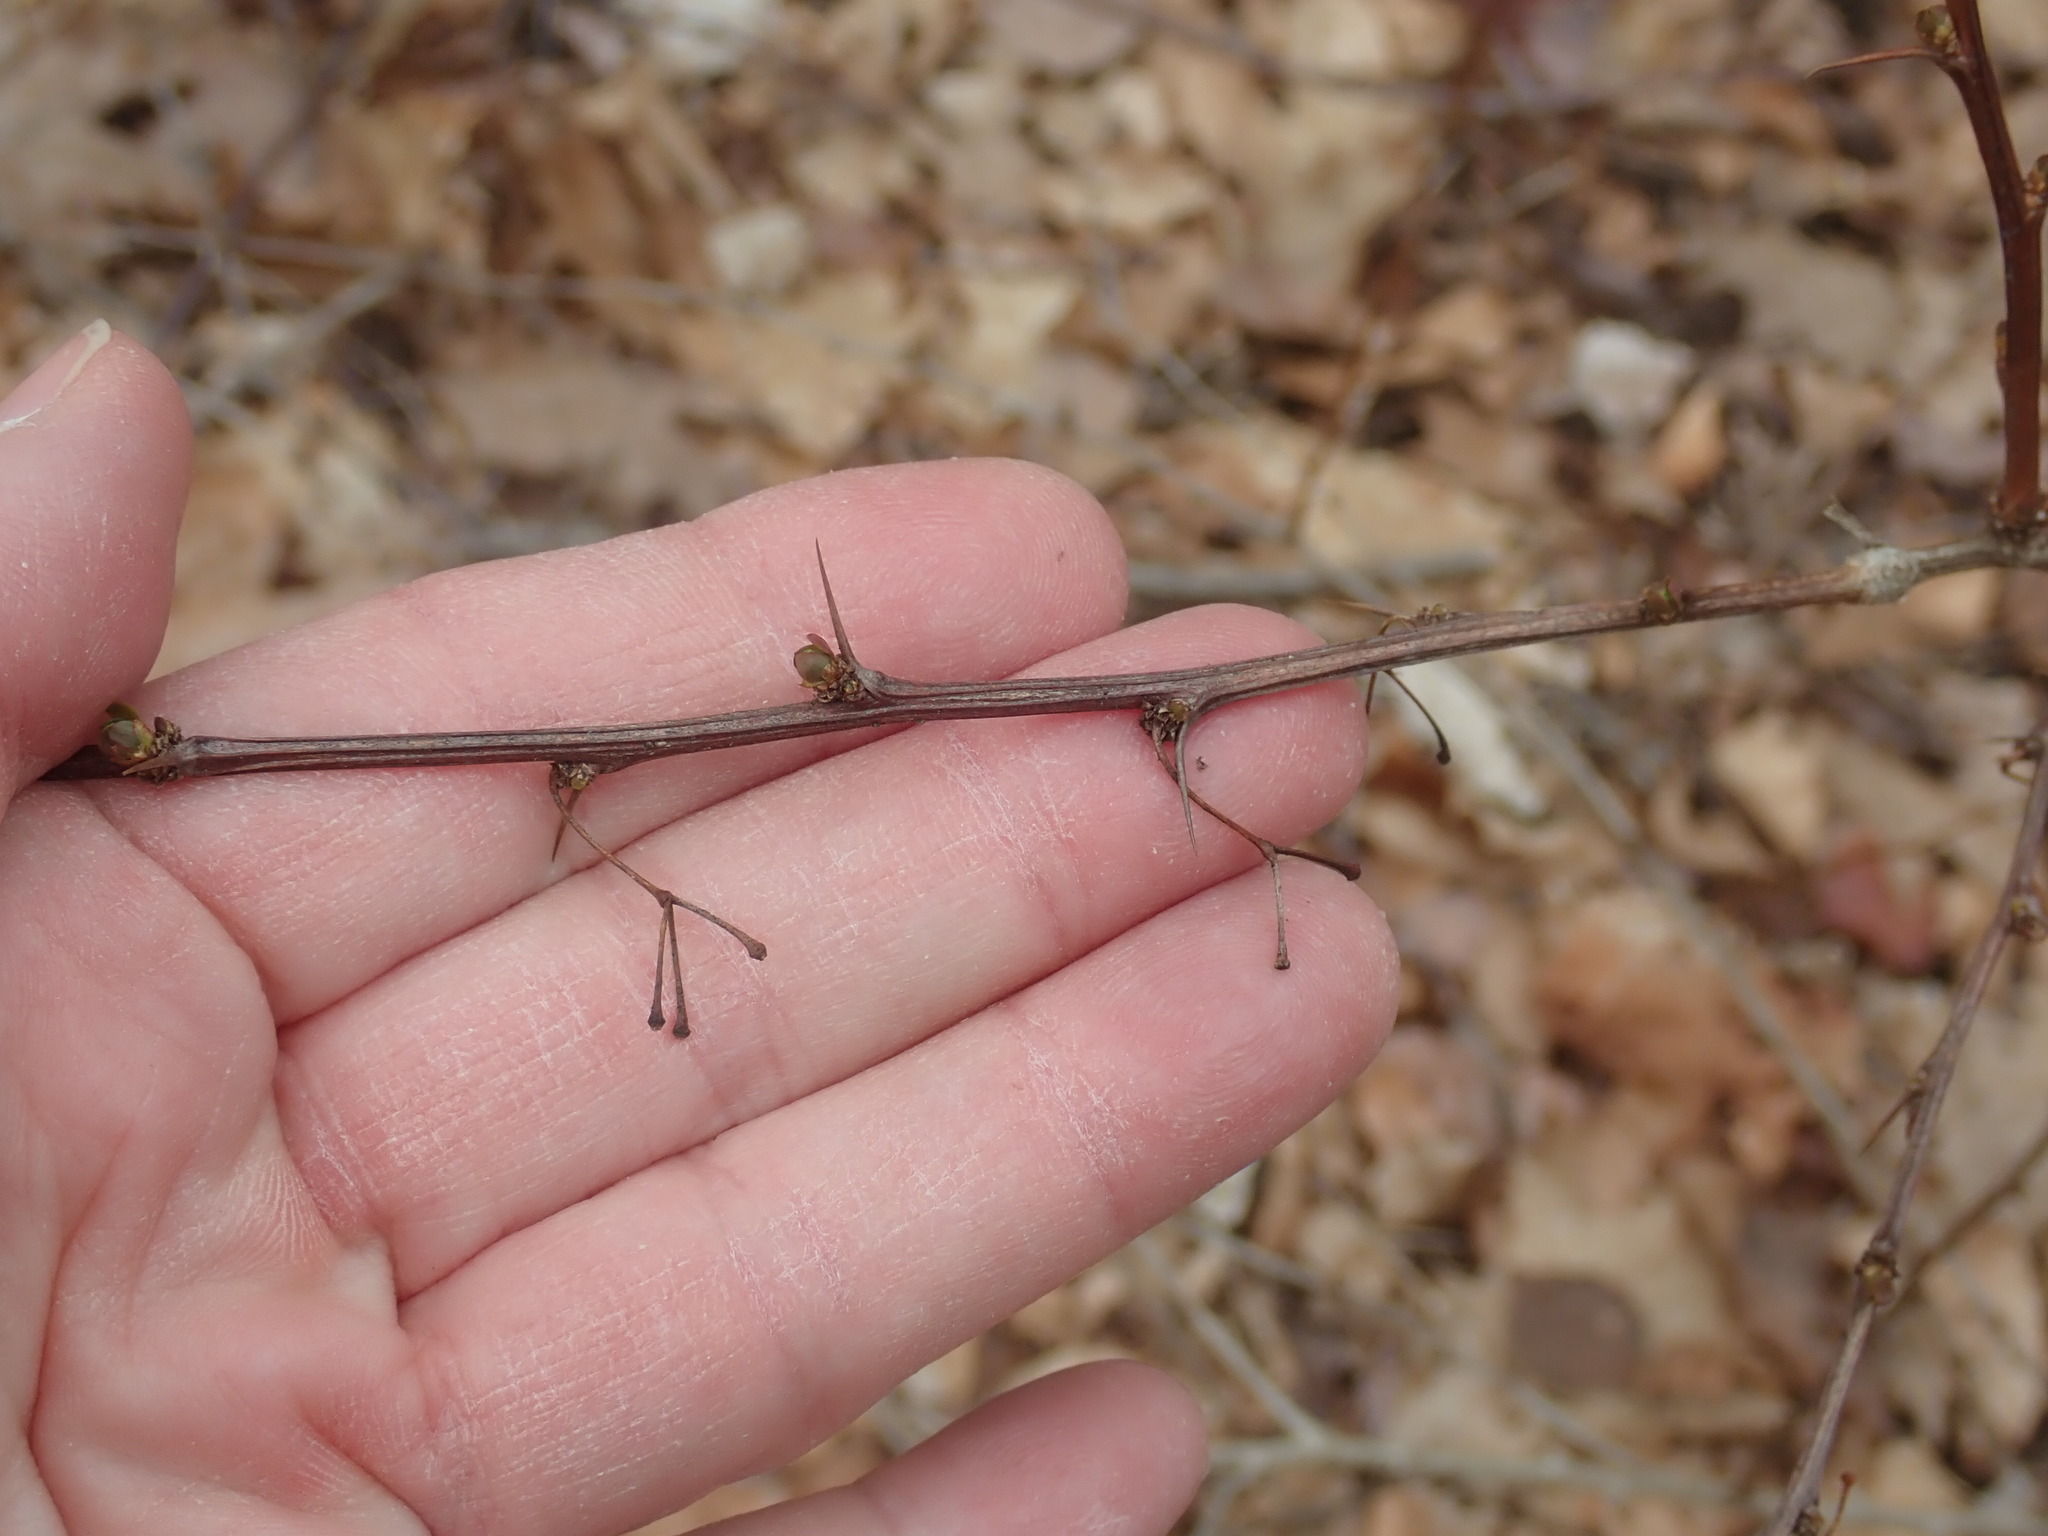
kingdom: Plantae
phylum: Tracheophyta
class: Magnoliopsida
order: Ranunculales
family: Berberidaceae
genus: Berberis
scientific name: Berberis thunbergii
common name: Japanese barberry
